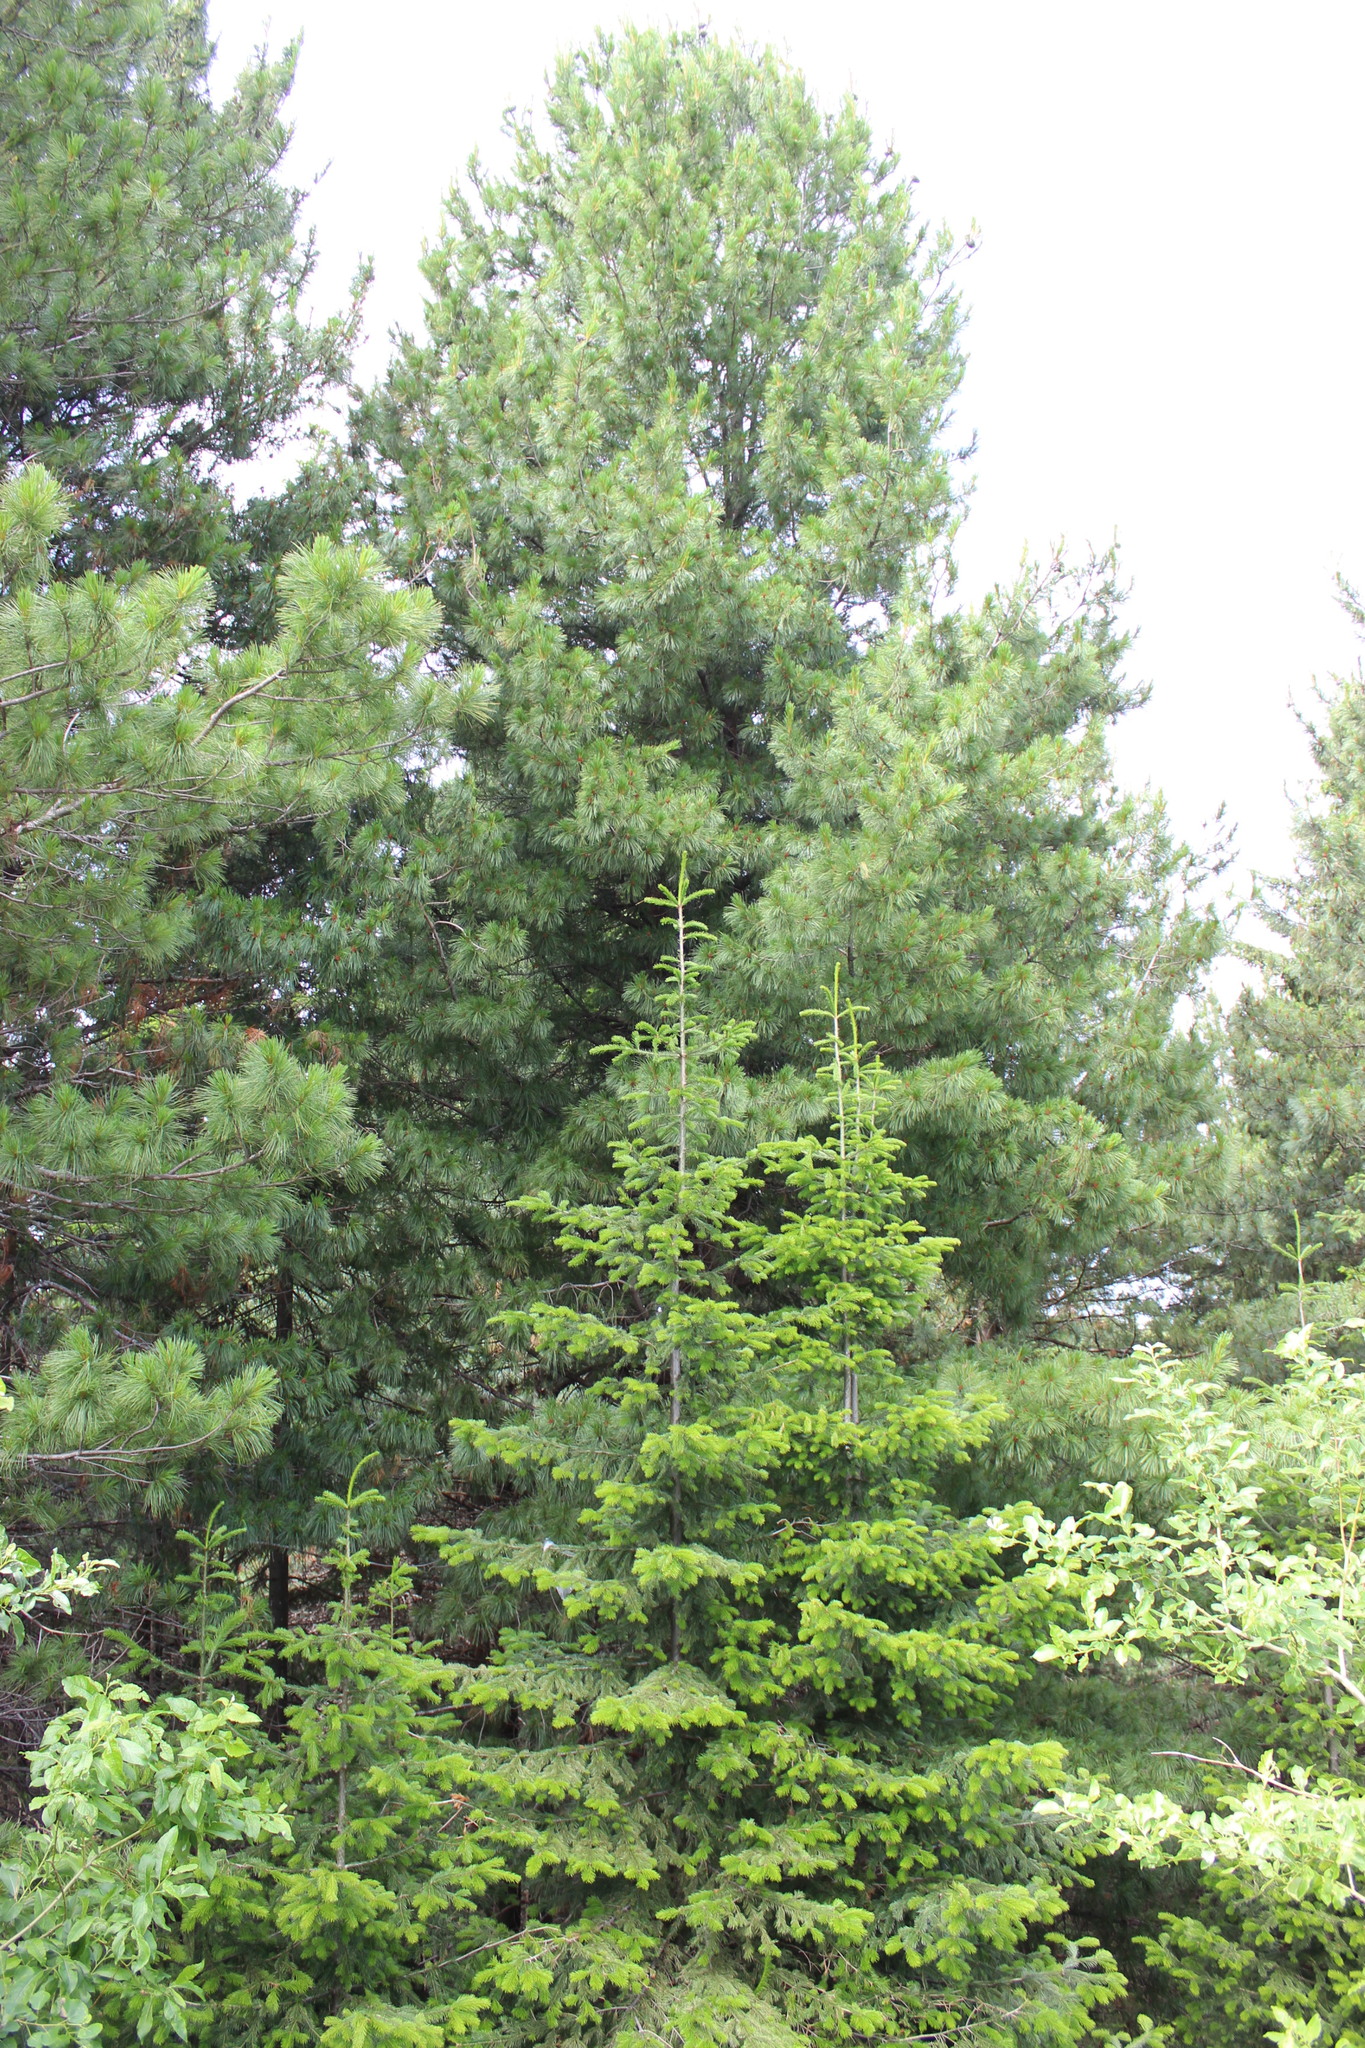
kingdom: Plantae
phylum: Tracheophyta
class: Pinopsida
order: Pinales
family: Pinaceae
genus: Abies
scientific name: Abies sibirica
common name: Siberian fir
